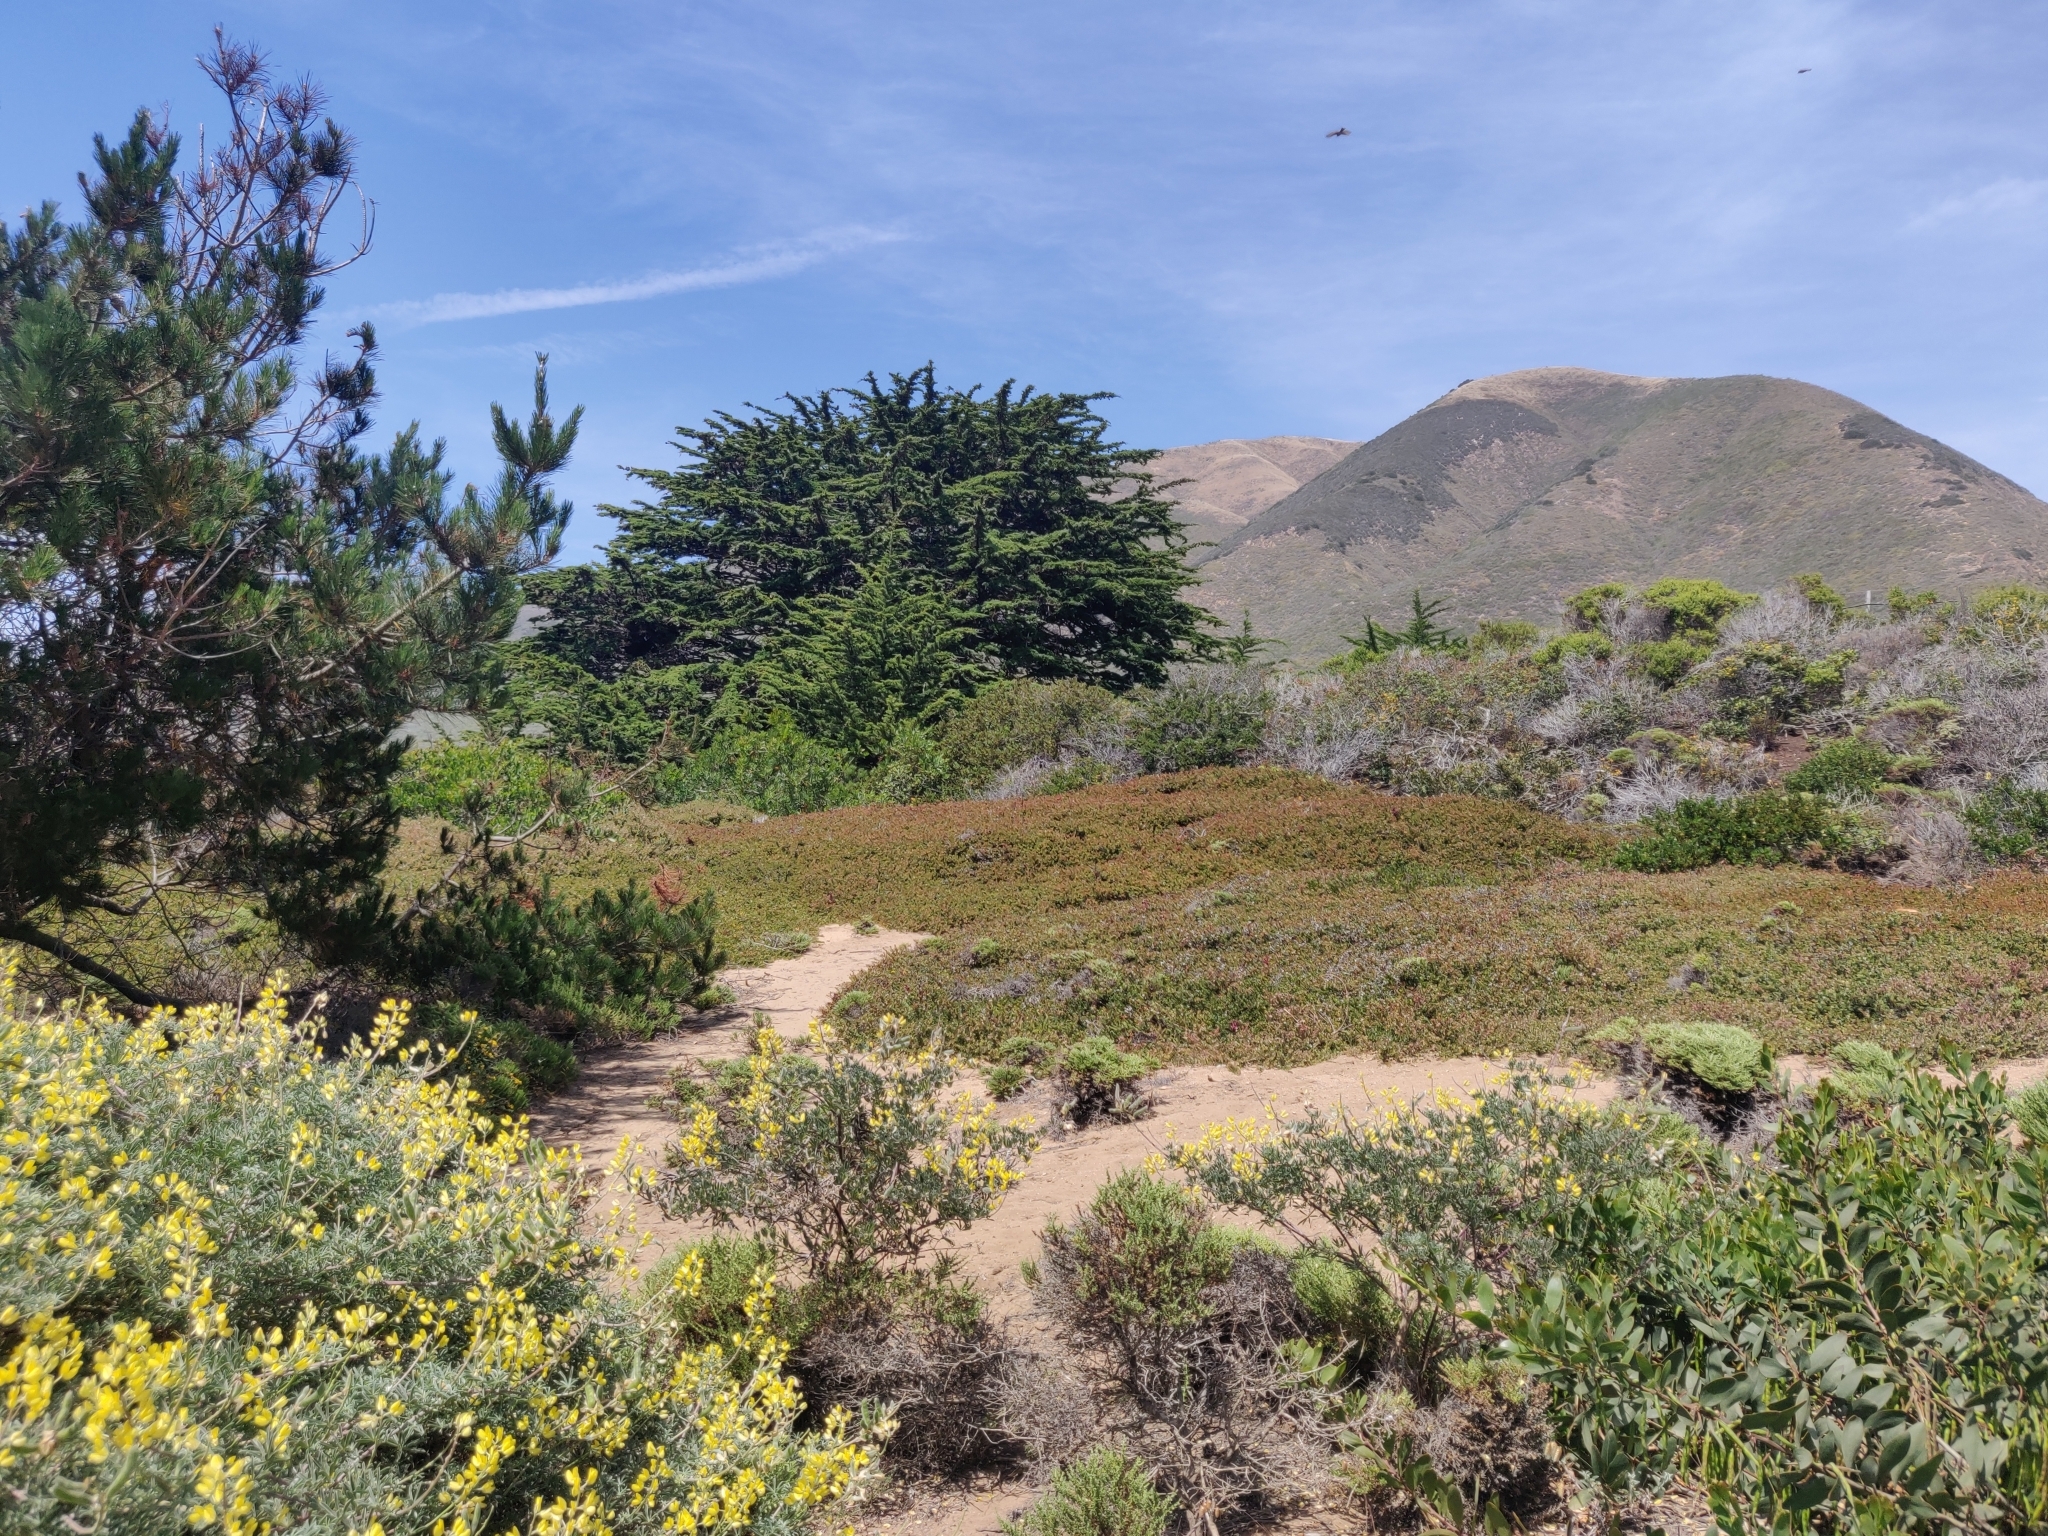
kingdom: Plantae
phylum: Tracheophyta
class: Magnoliopsida
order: Ericales
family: Ericaceae
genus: Arctostaphylos
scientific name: Arctostaphylos edmundsii
